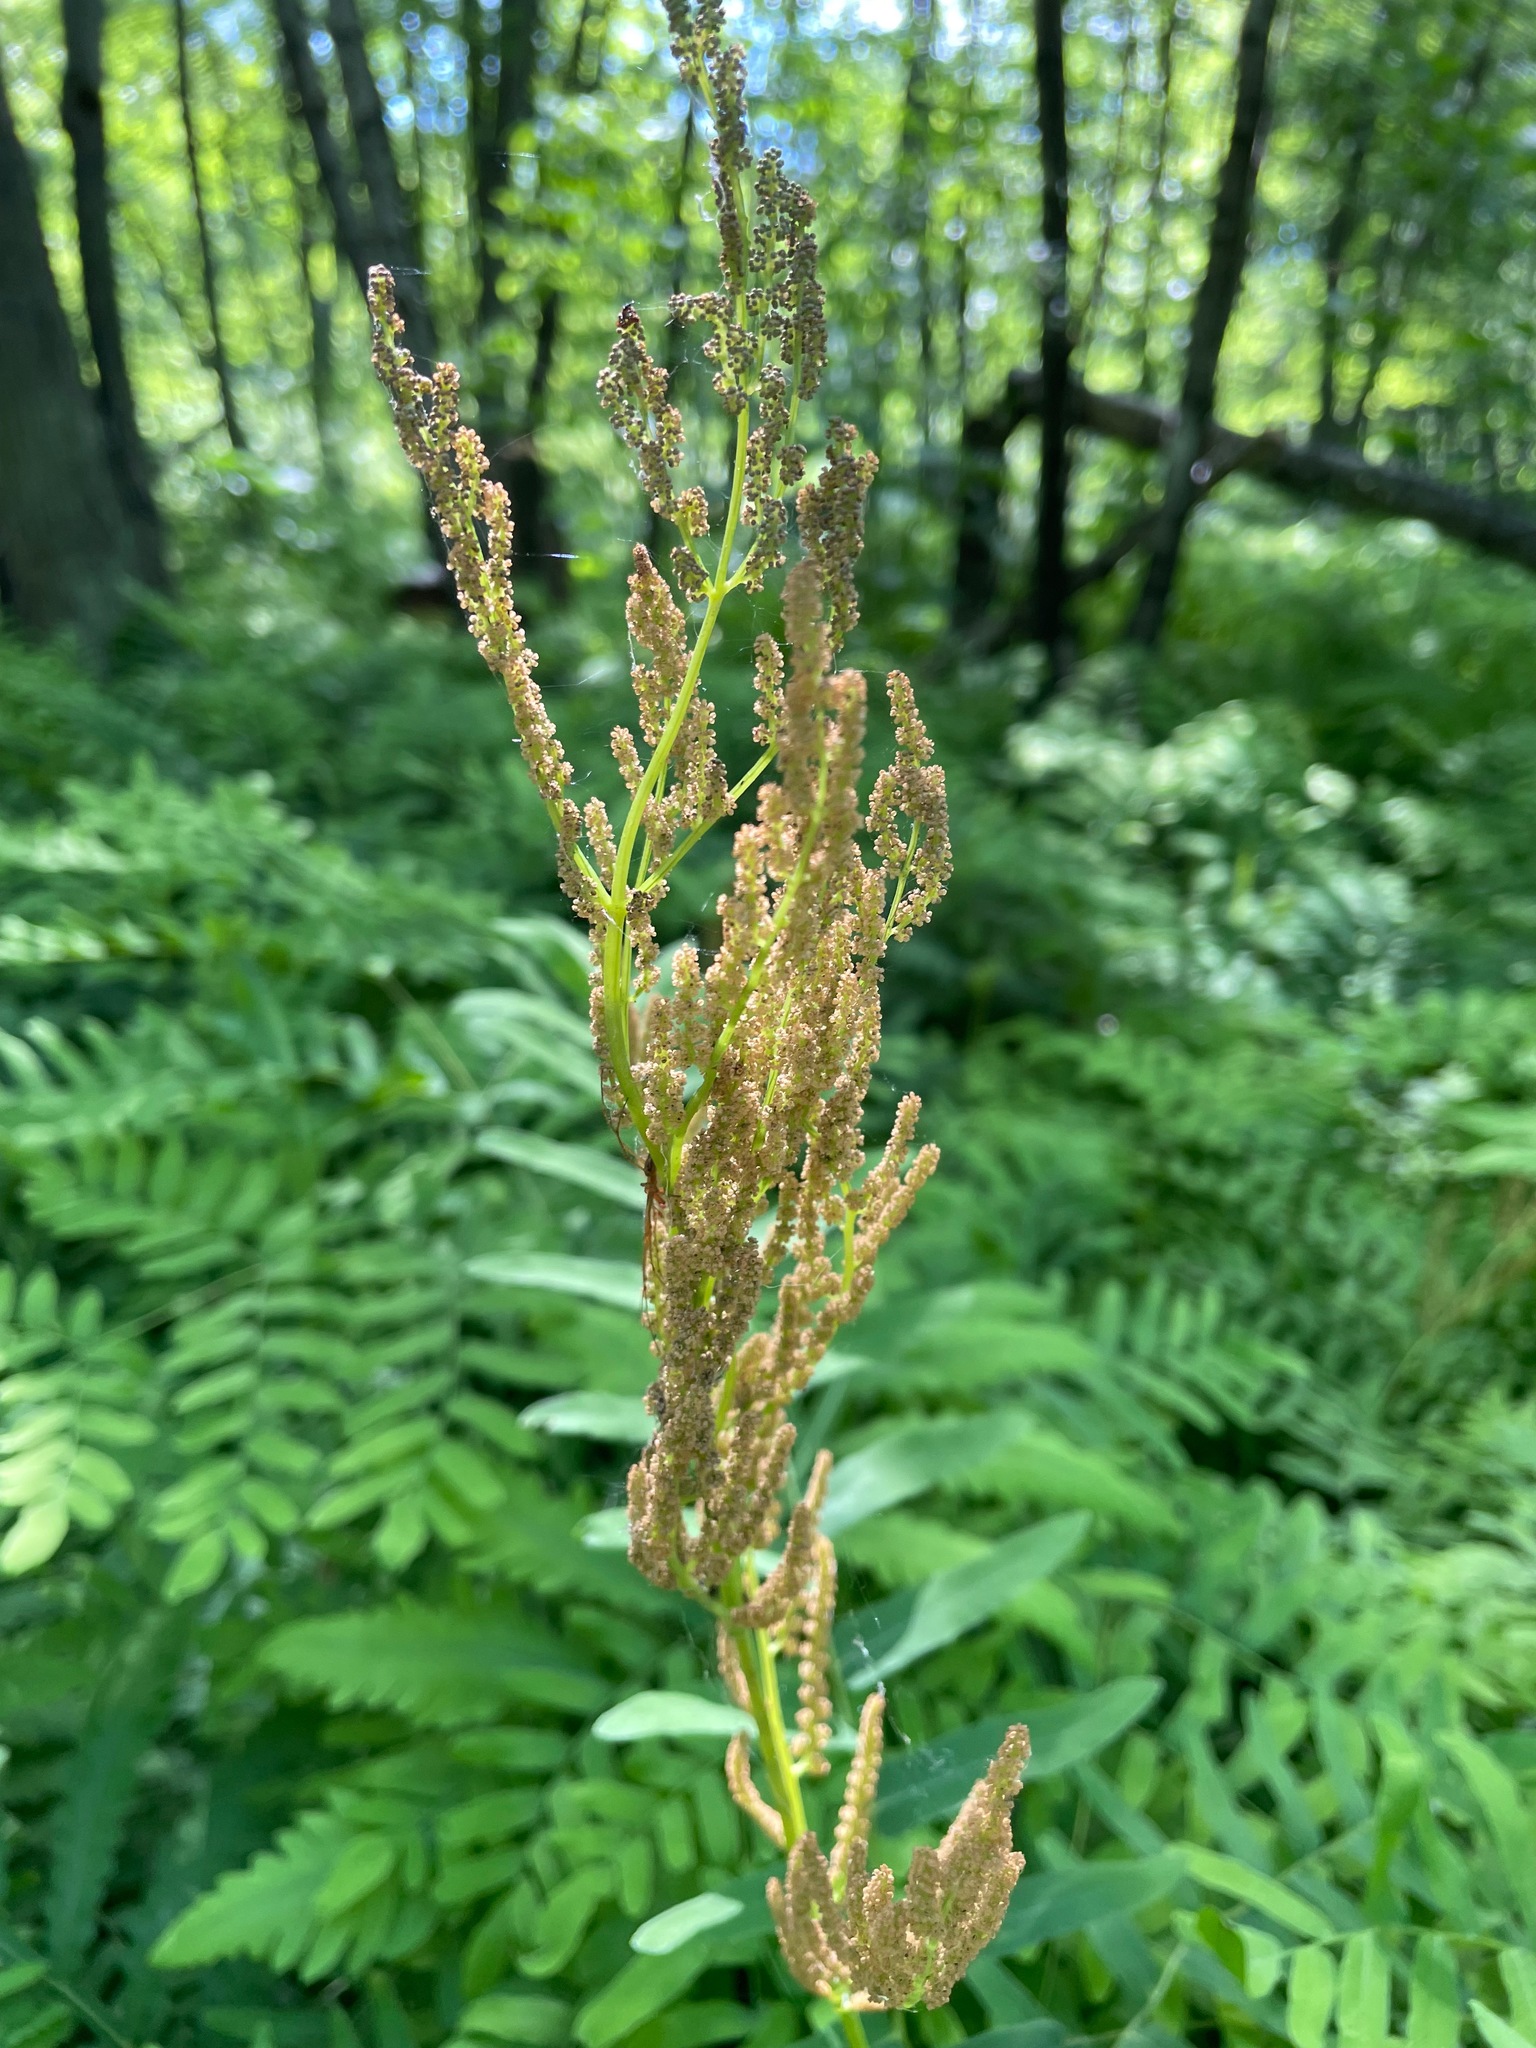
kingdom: Plantae
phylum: Tracheophyta
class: Polypodiopsida
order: Osmundales
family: Osmundaceae
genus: Osmunda
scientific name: Osmunda spectabilis
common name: American royal fern
